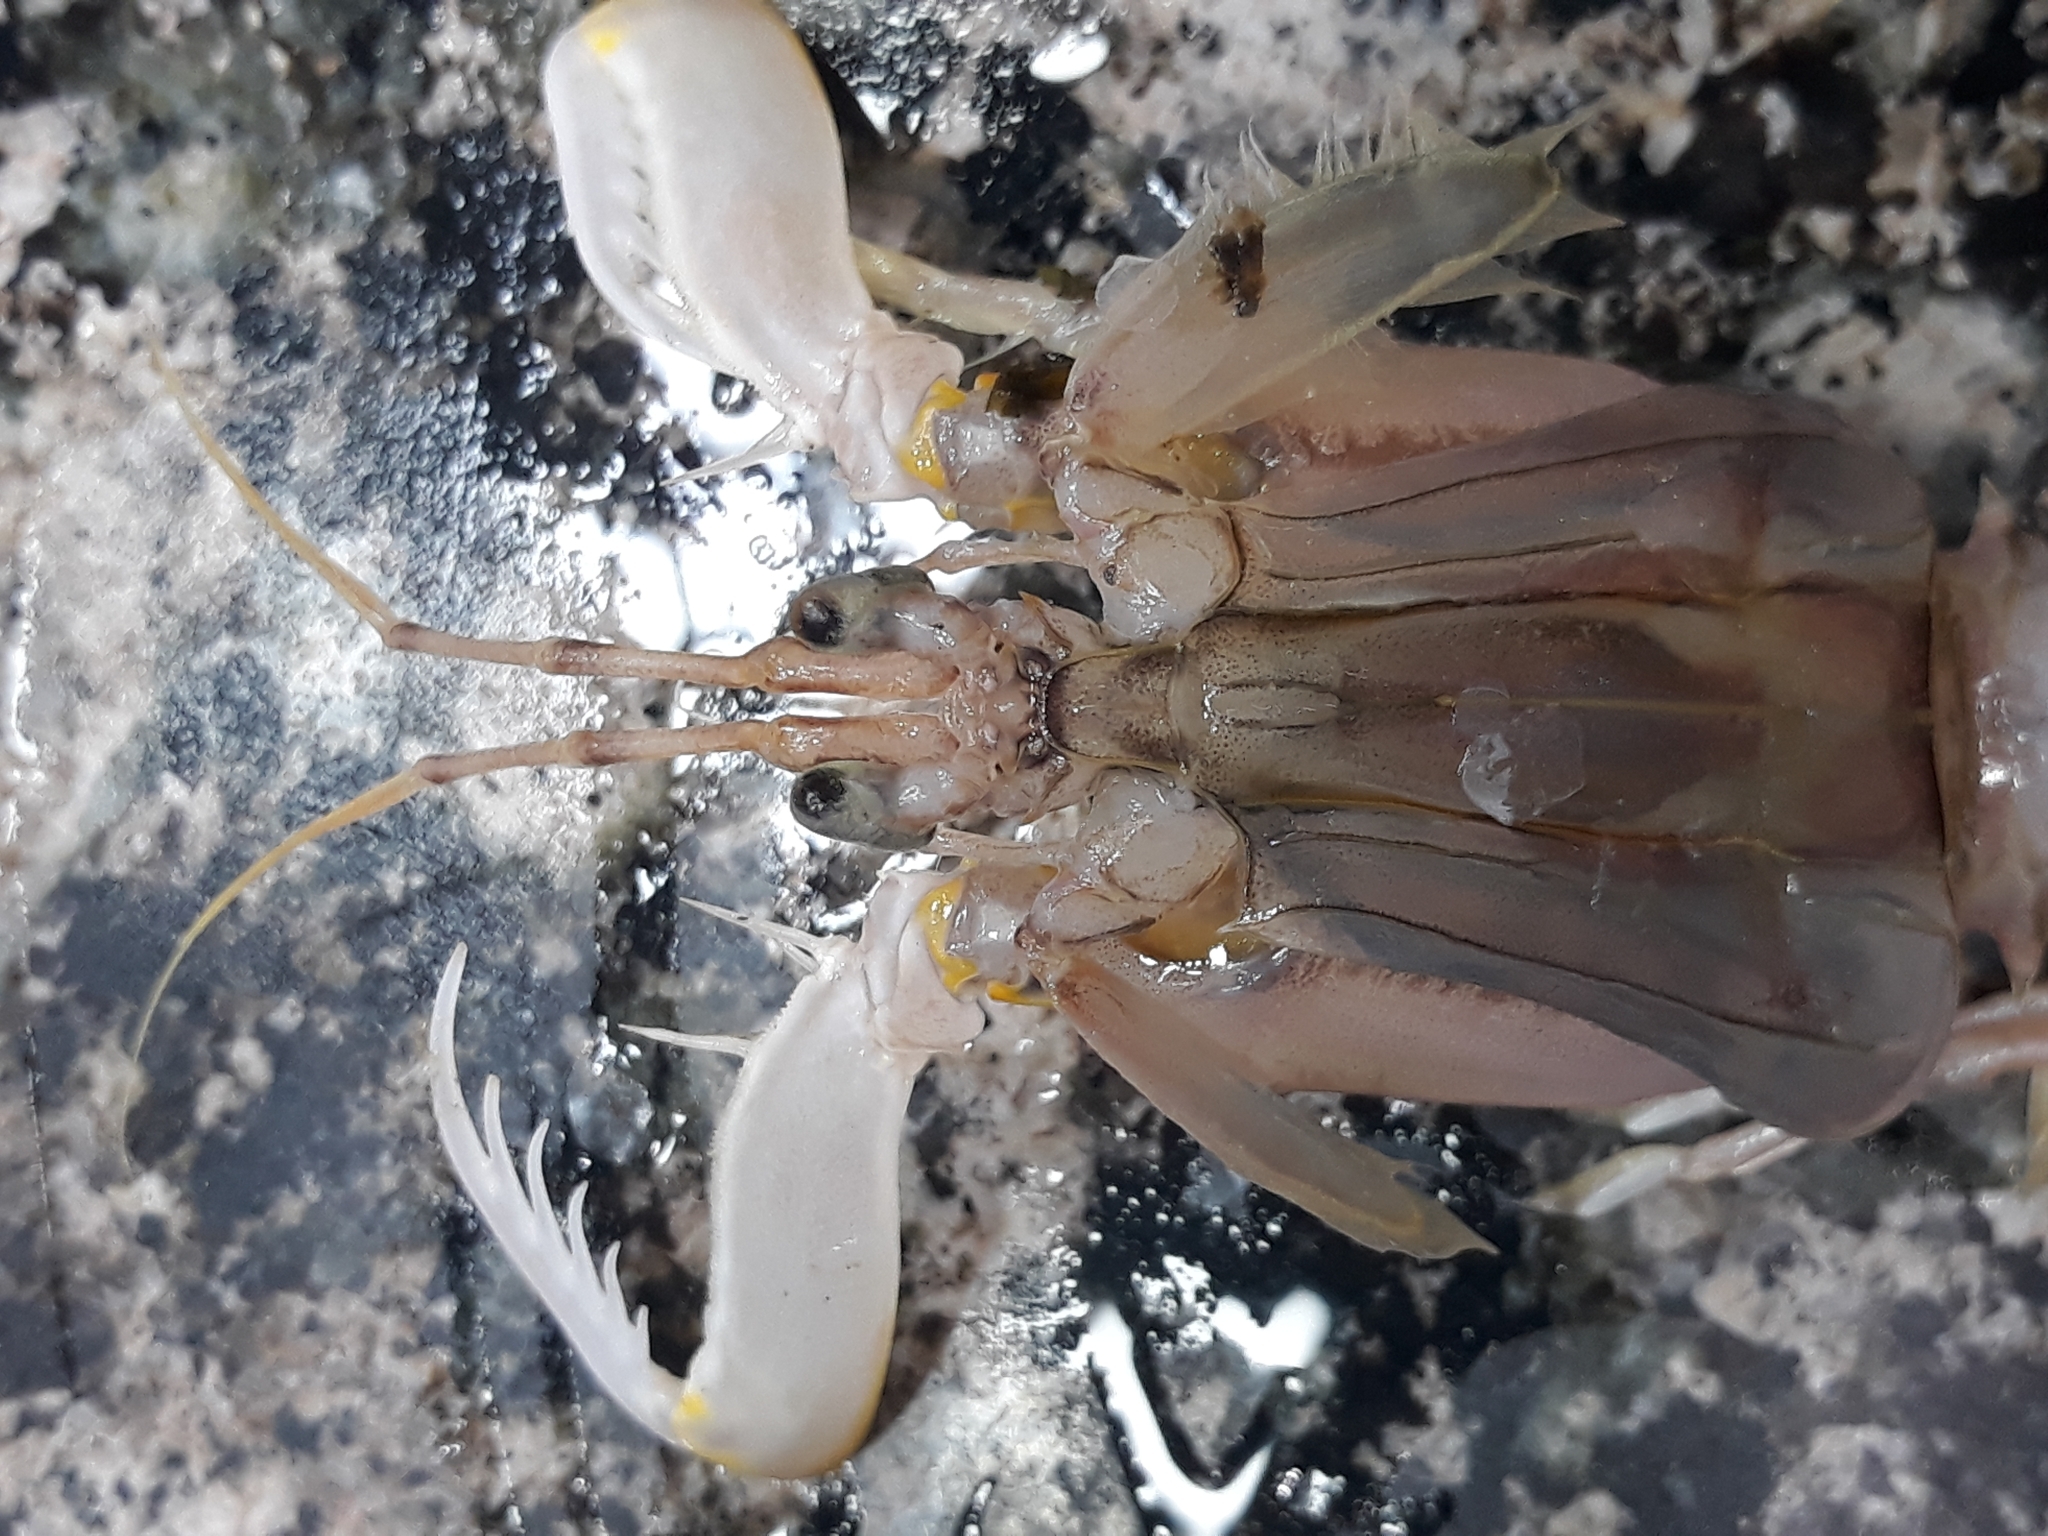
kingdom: Animalia
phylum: Arthropoda
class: Malacostraca
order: Stomatopoda
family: Squillidae
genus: Squilla
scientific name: Squilla mantis
